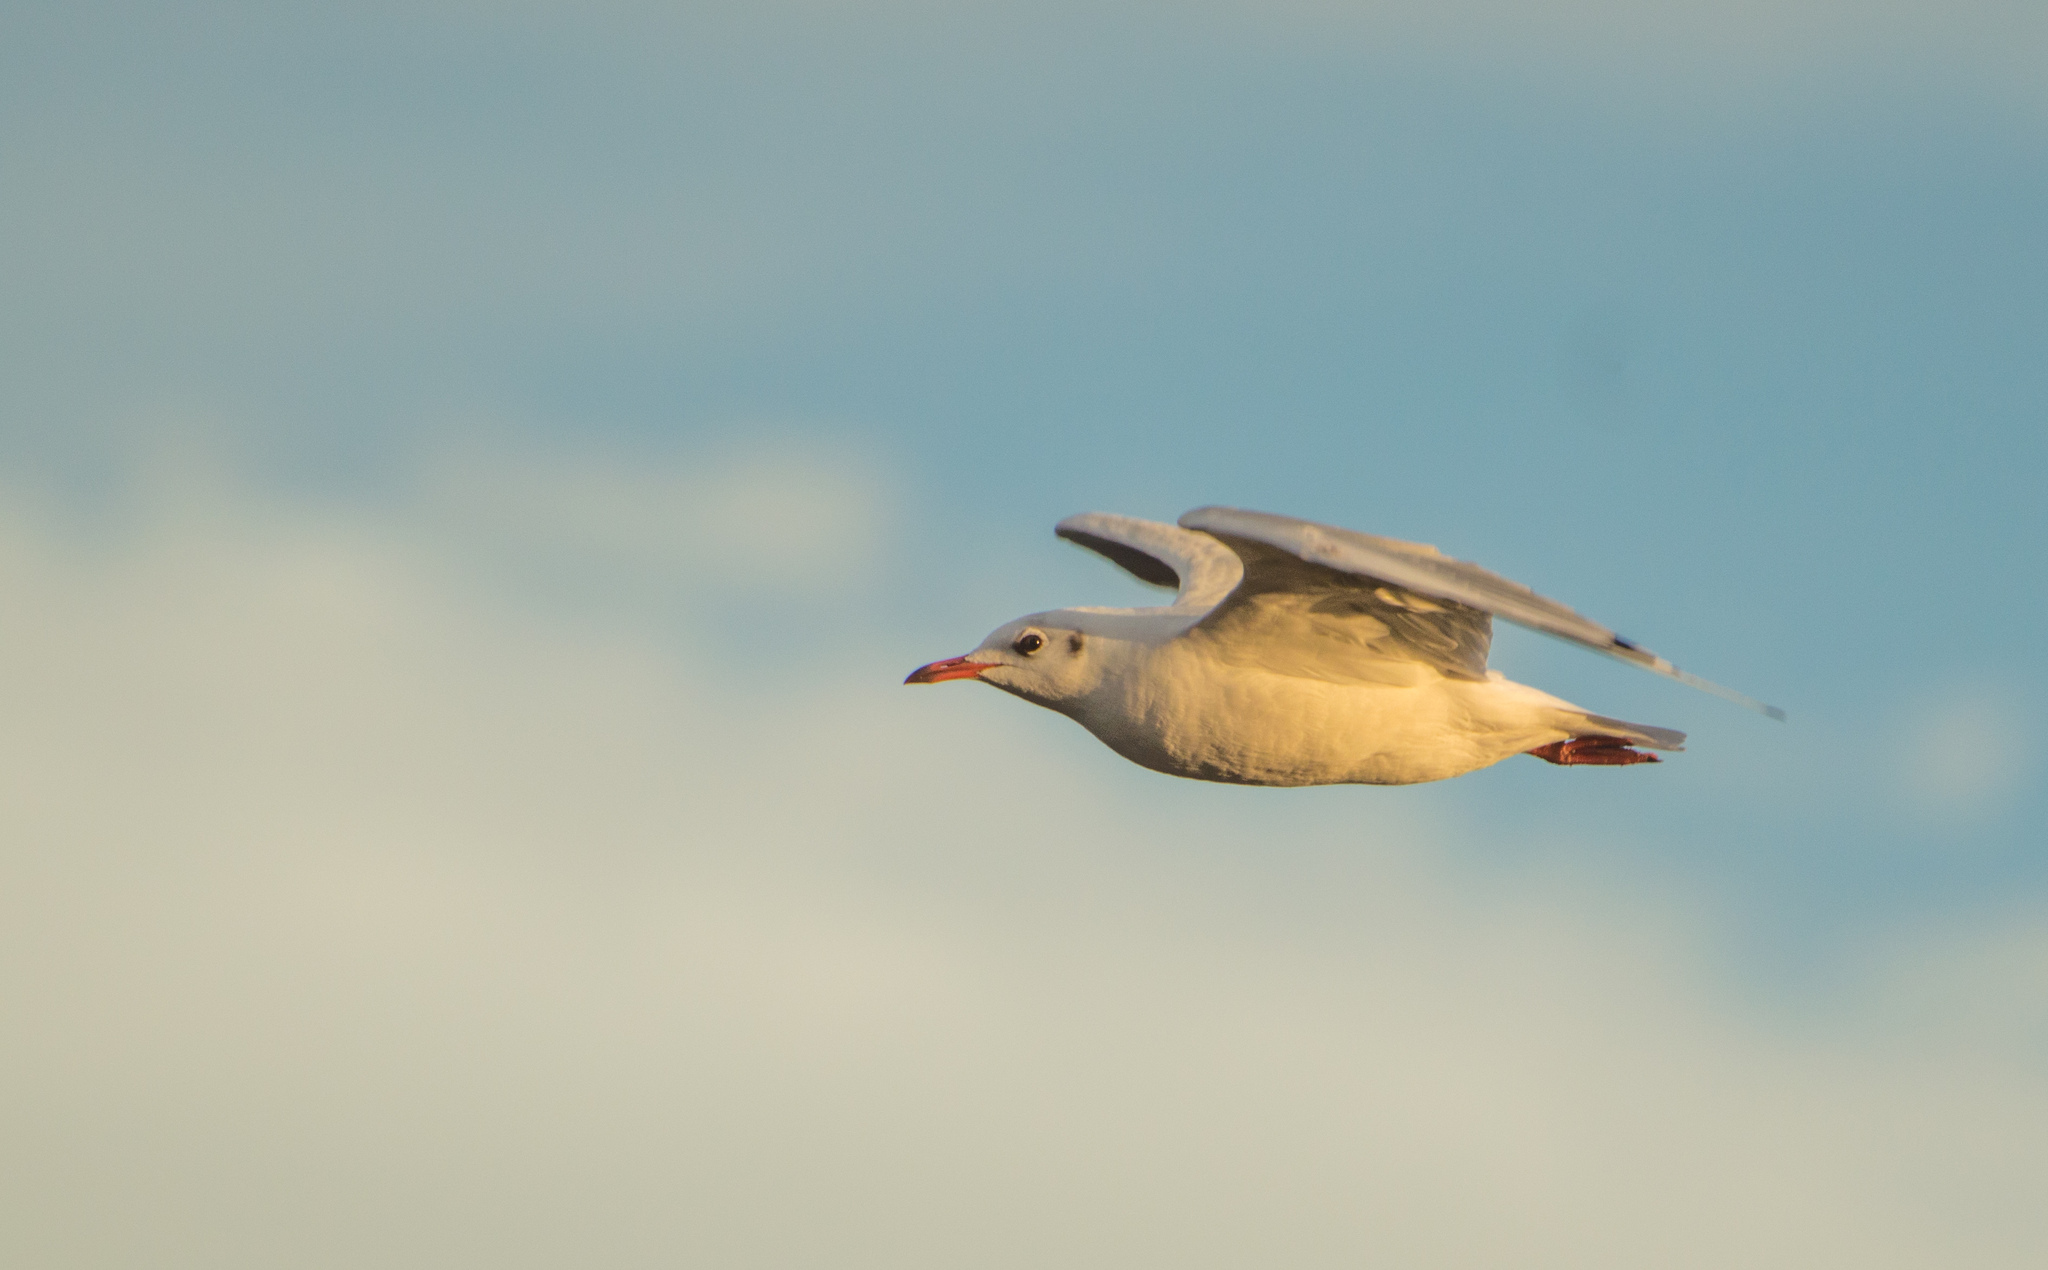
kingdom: Animalia
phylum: Chordata
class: Aves
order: Charadriiformes
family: Laridae
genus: Chroicocephalus
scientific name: Chroicocephalus maculipennis
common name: Brown-hooded gull
